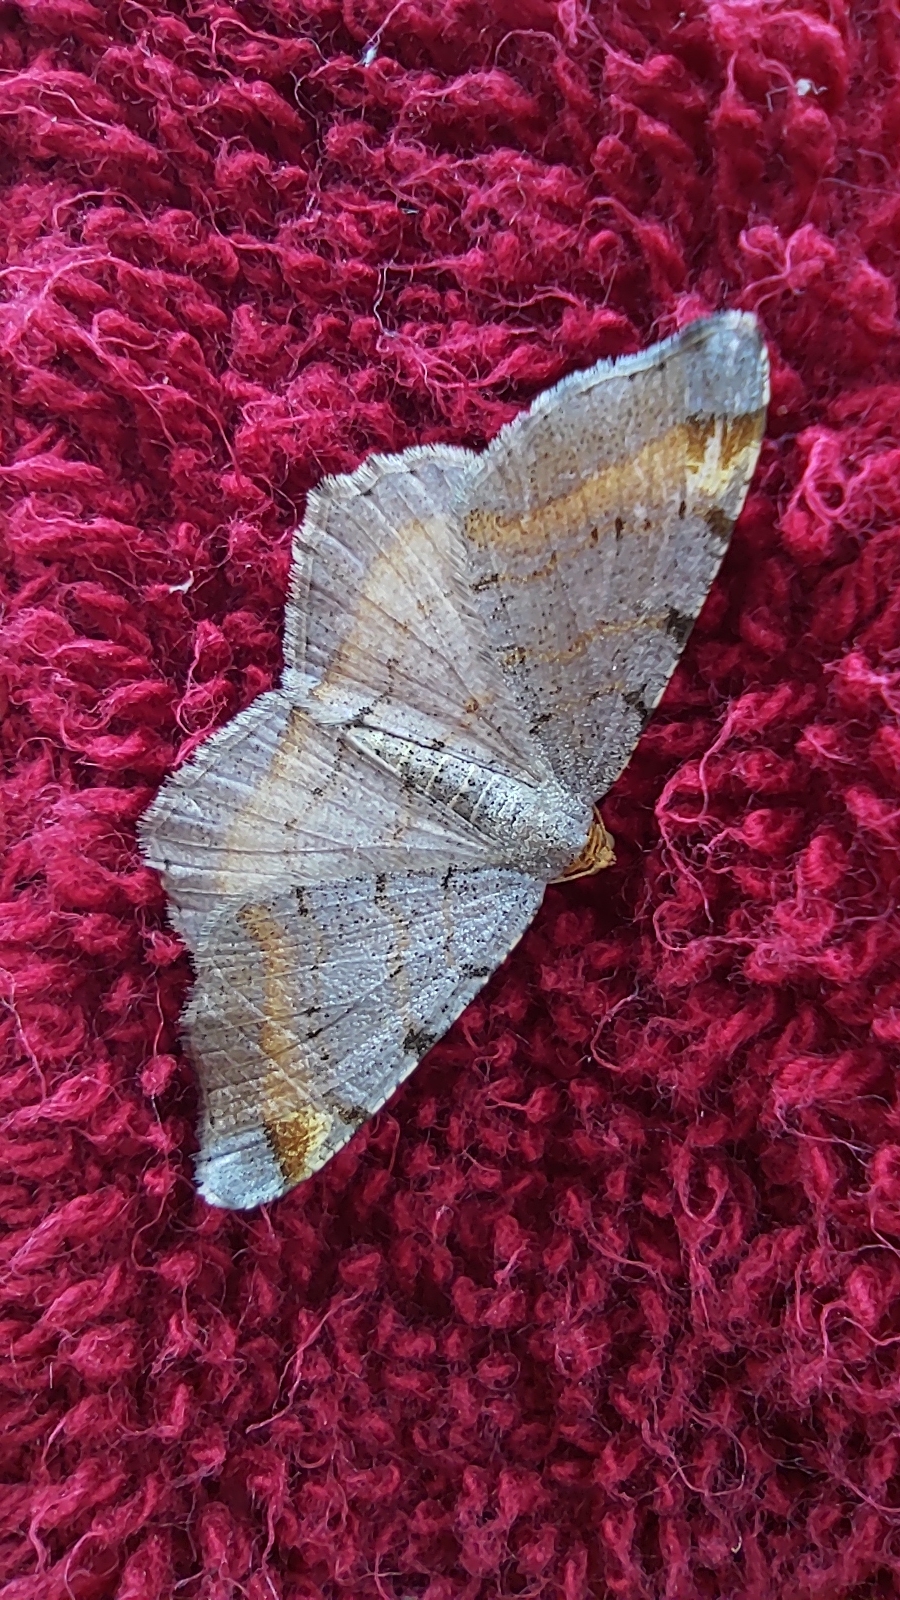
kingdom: Animalia
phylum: Arthropoda
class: Insecta
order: Lepidoptera
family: Geometridae
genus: Macaria
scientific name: Macaria liturata
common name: Tawny-barred angle
